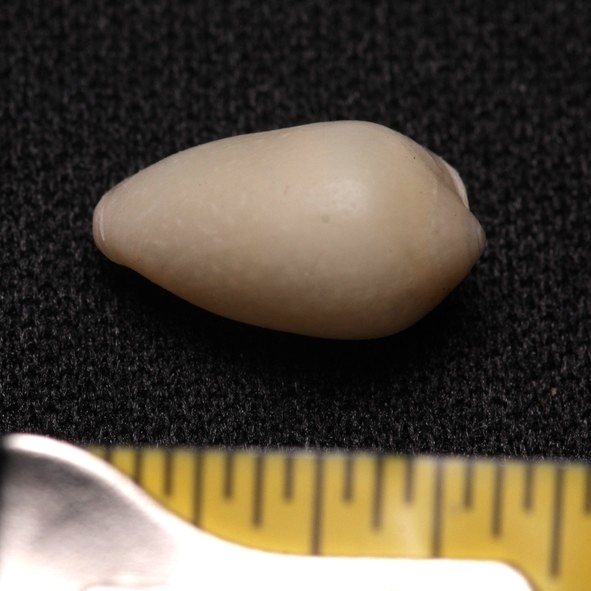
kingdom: Animalia
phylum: Mollusca
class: Gastropoda
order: Neogastropoda
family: Marginellidae
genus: Prunum
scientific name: Prunum apicinum
